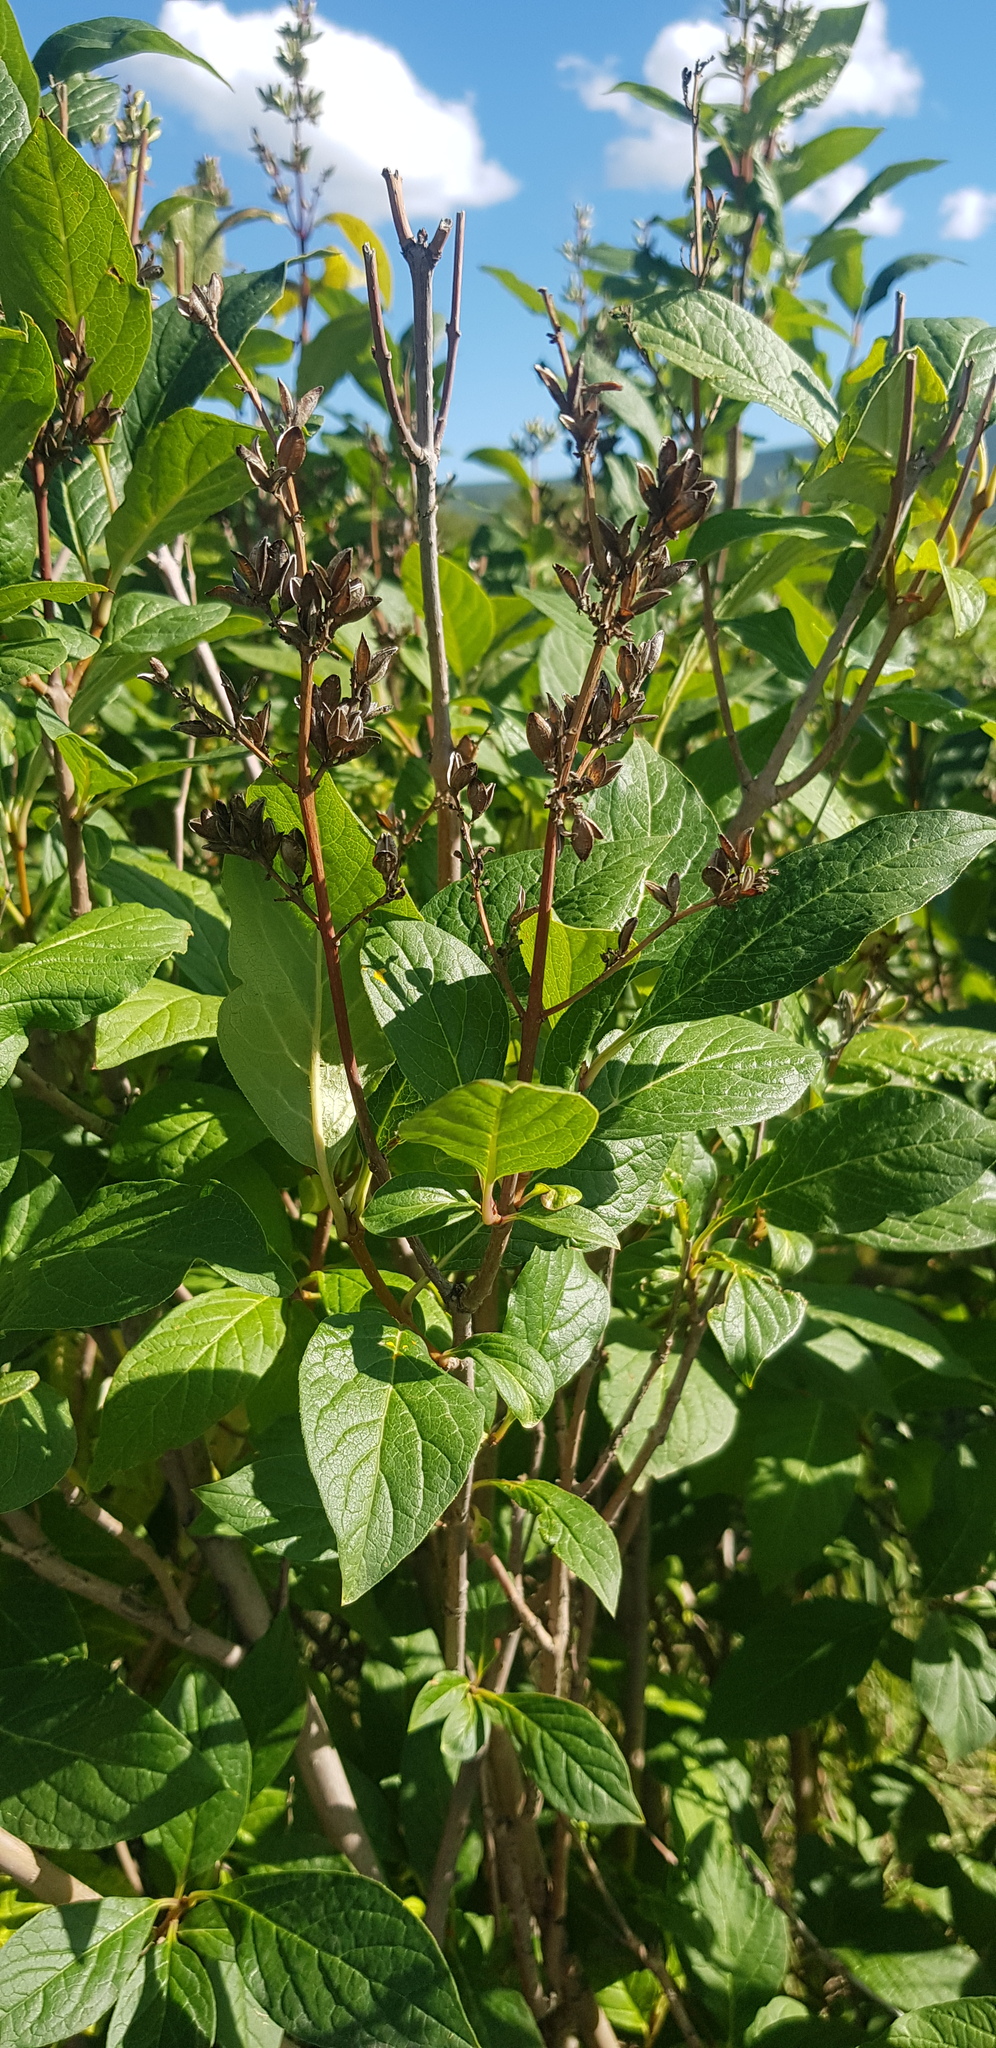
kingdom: Plantae
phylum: Tracheophyta
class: Magnoliopsida
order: Lamiales
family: Oleaceae
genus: Syringa
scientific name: Syringa josikaea
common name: Hungarian lilac
